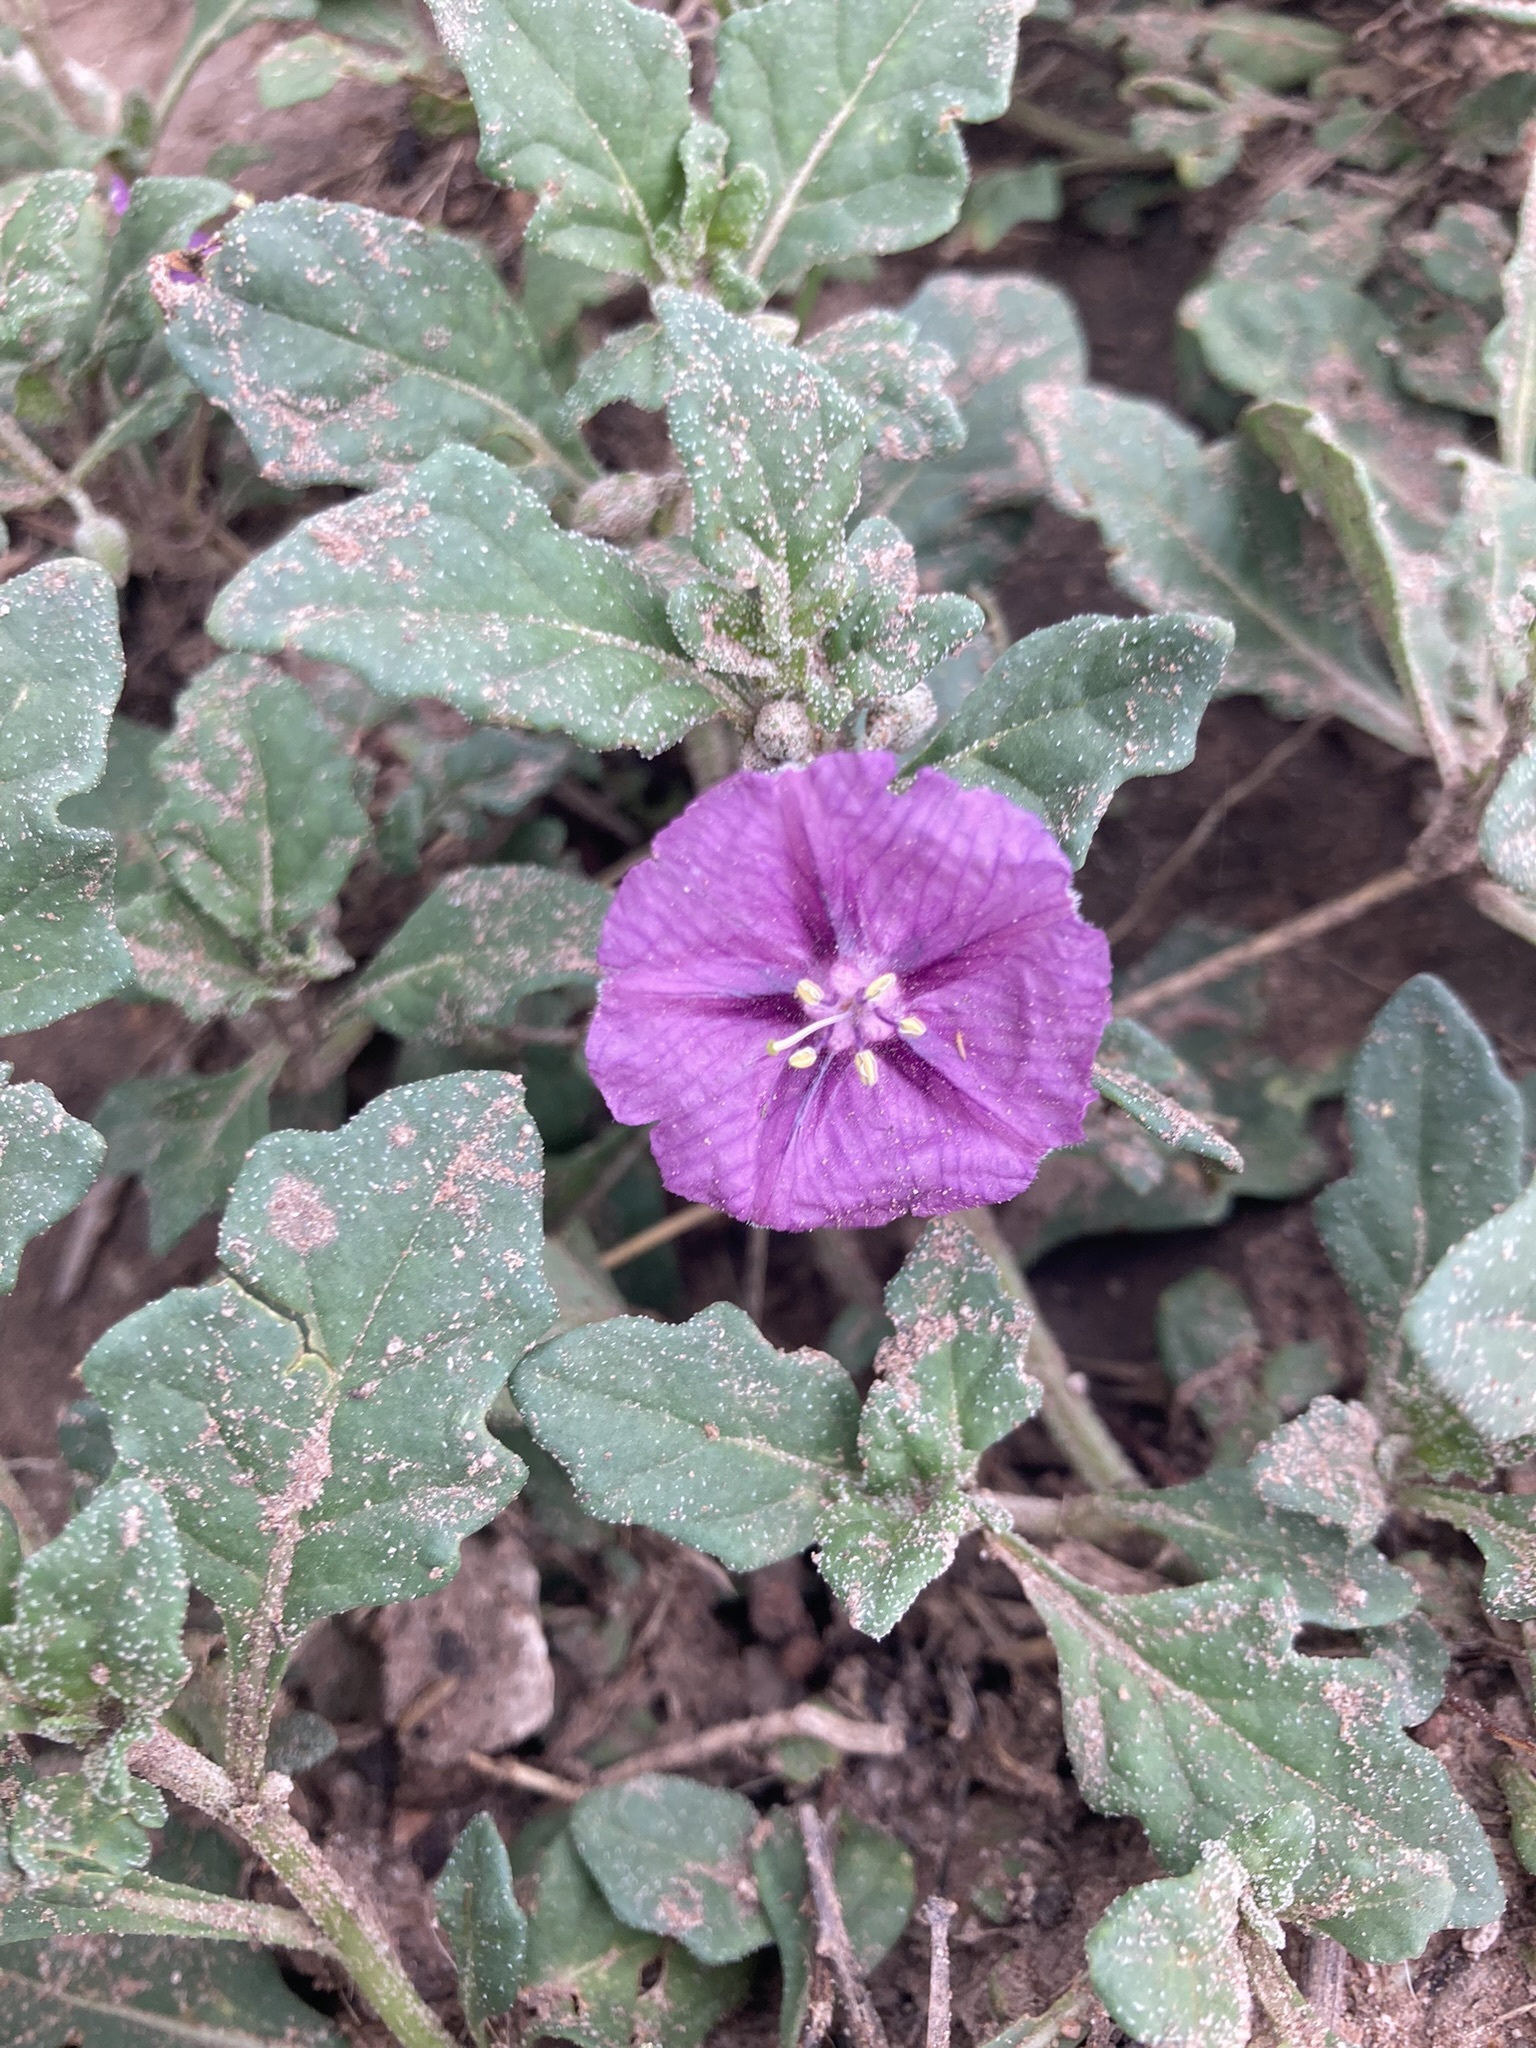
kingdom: Plantae
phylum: Tracheophyta
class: Magnoliopsida
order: Solanales
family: Solanaceae
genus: Quincula
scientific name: Quincula lobata
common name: Purple-ground-cherry
